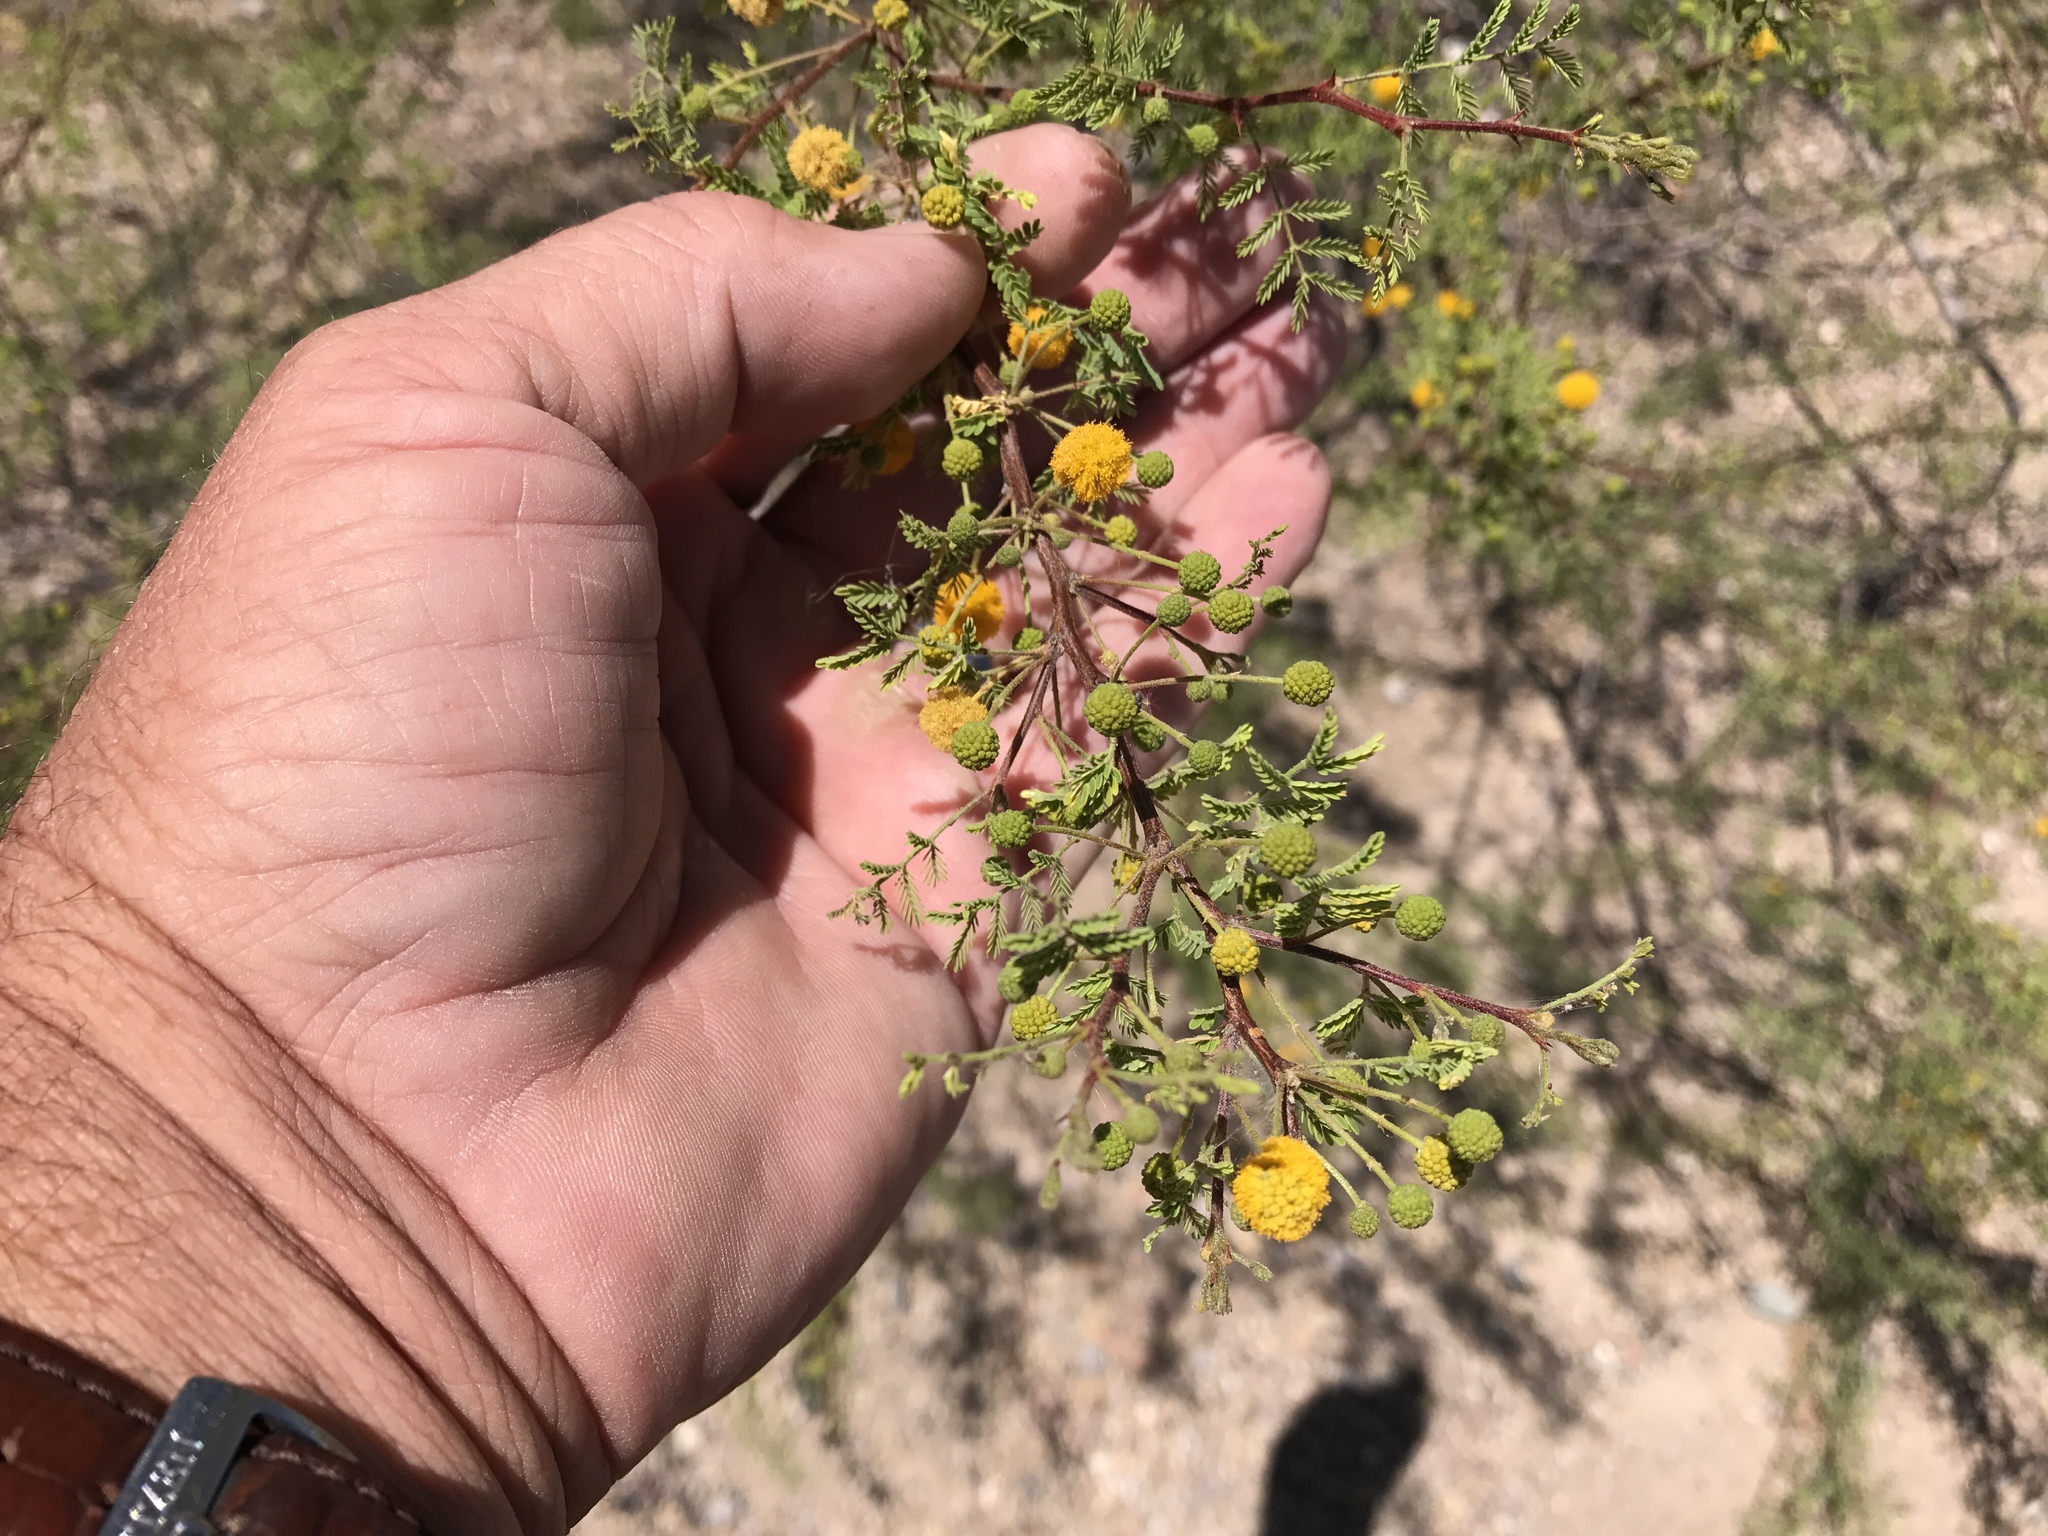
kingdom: Plantae
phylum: Tracheophyta
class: Magnoliopsida
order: Fabales
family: Fabaceae
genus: Vachellia
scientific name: Vachellia constricta
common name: Mescat acacia
